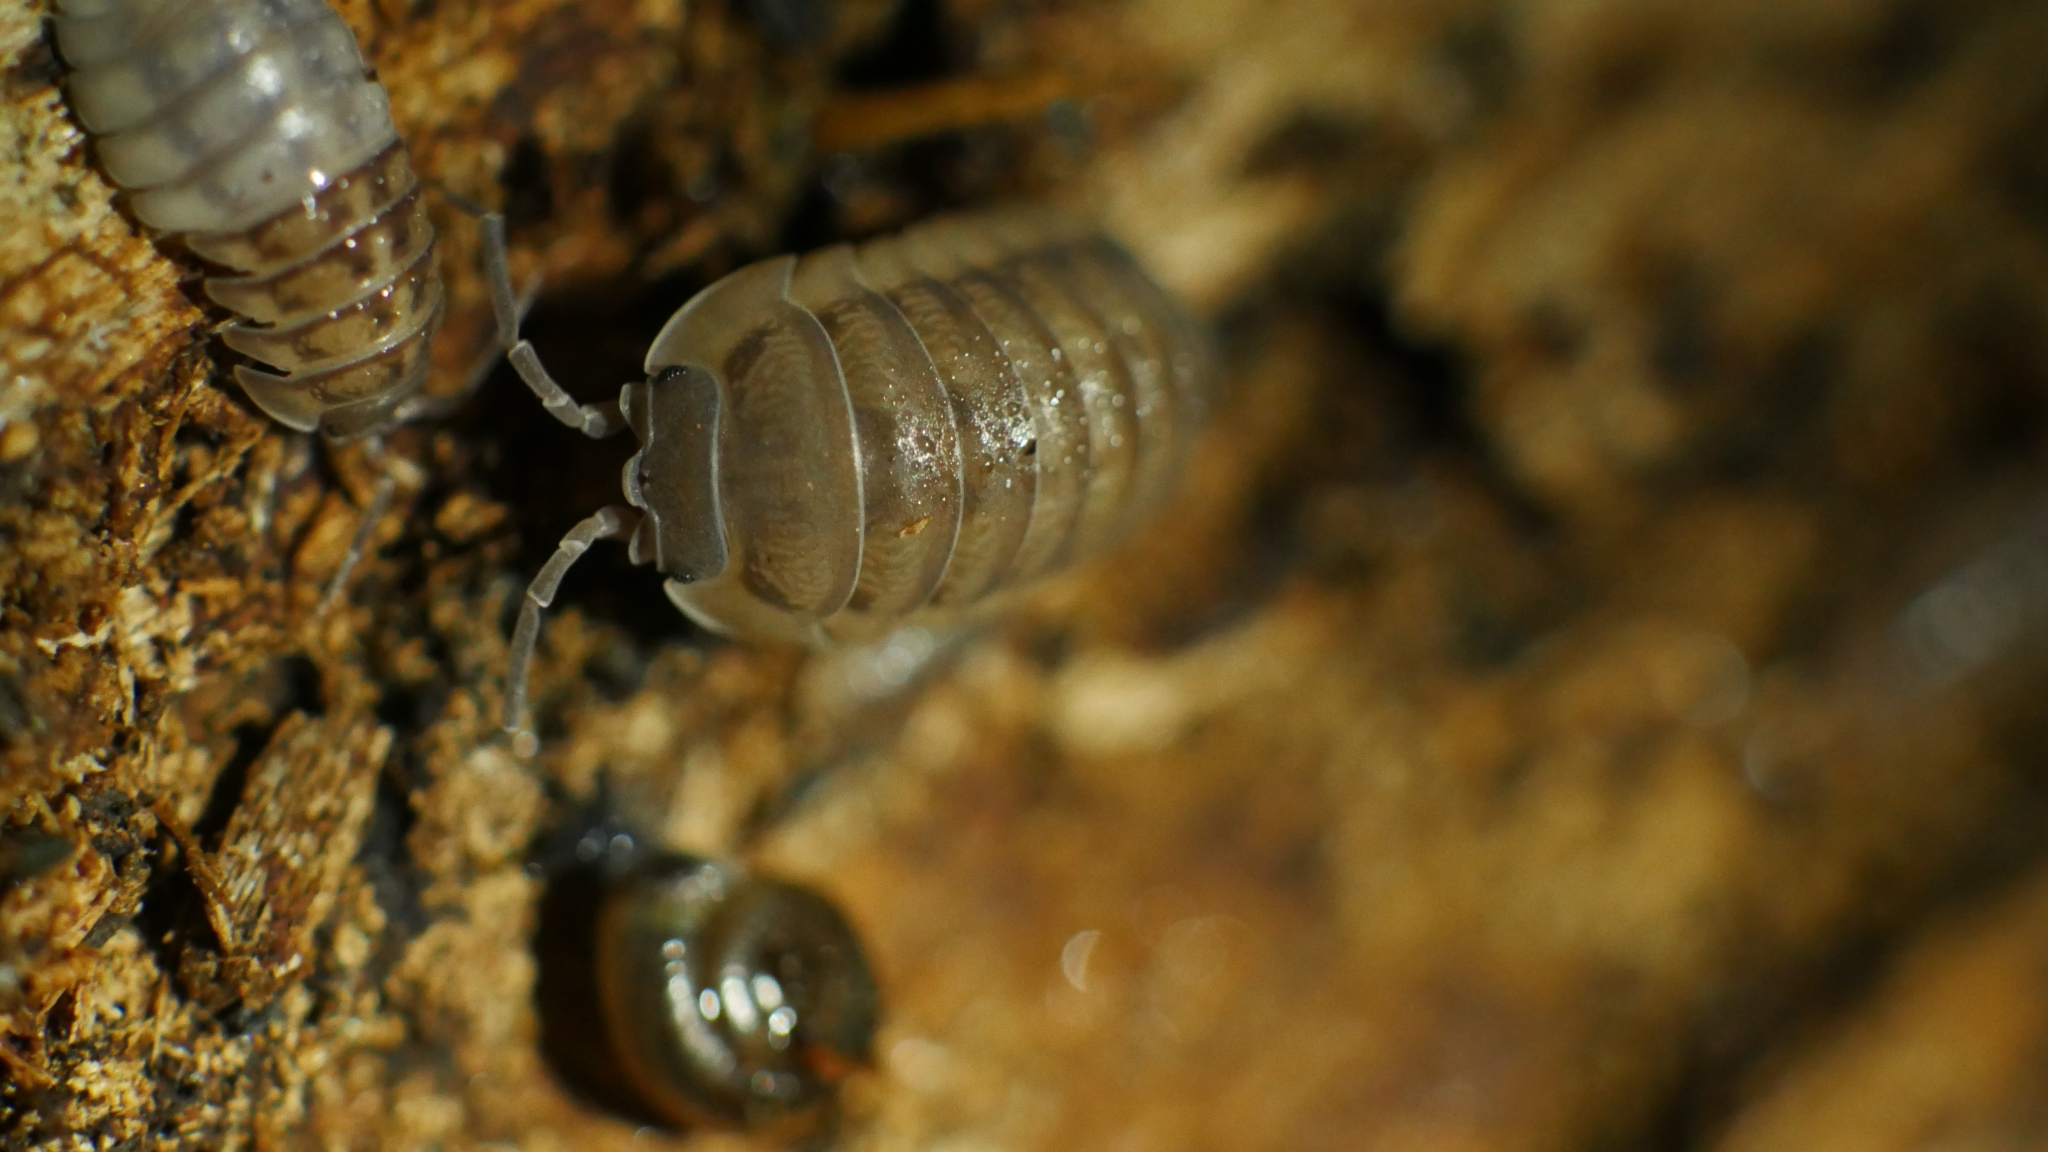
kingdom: Animalia
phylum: Arthropoda
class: Malacostraca
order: Isopoda
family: Armadillidiidae
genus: Armadillidium
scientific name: Armadillidium nasatum
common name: Isopod
